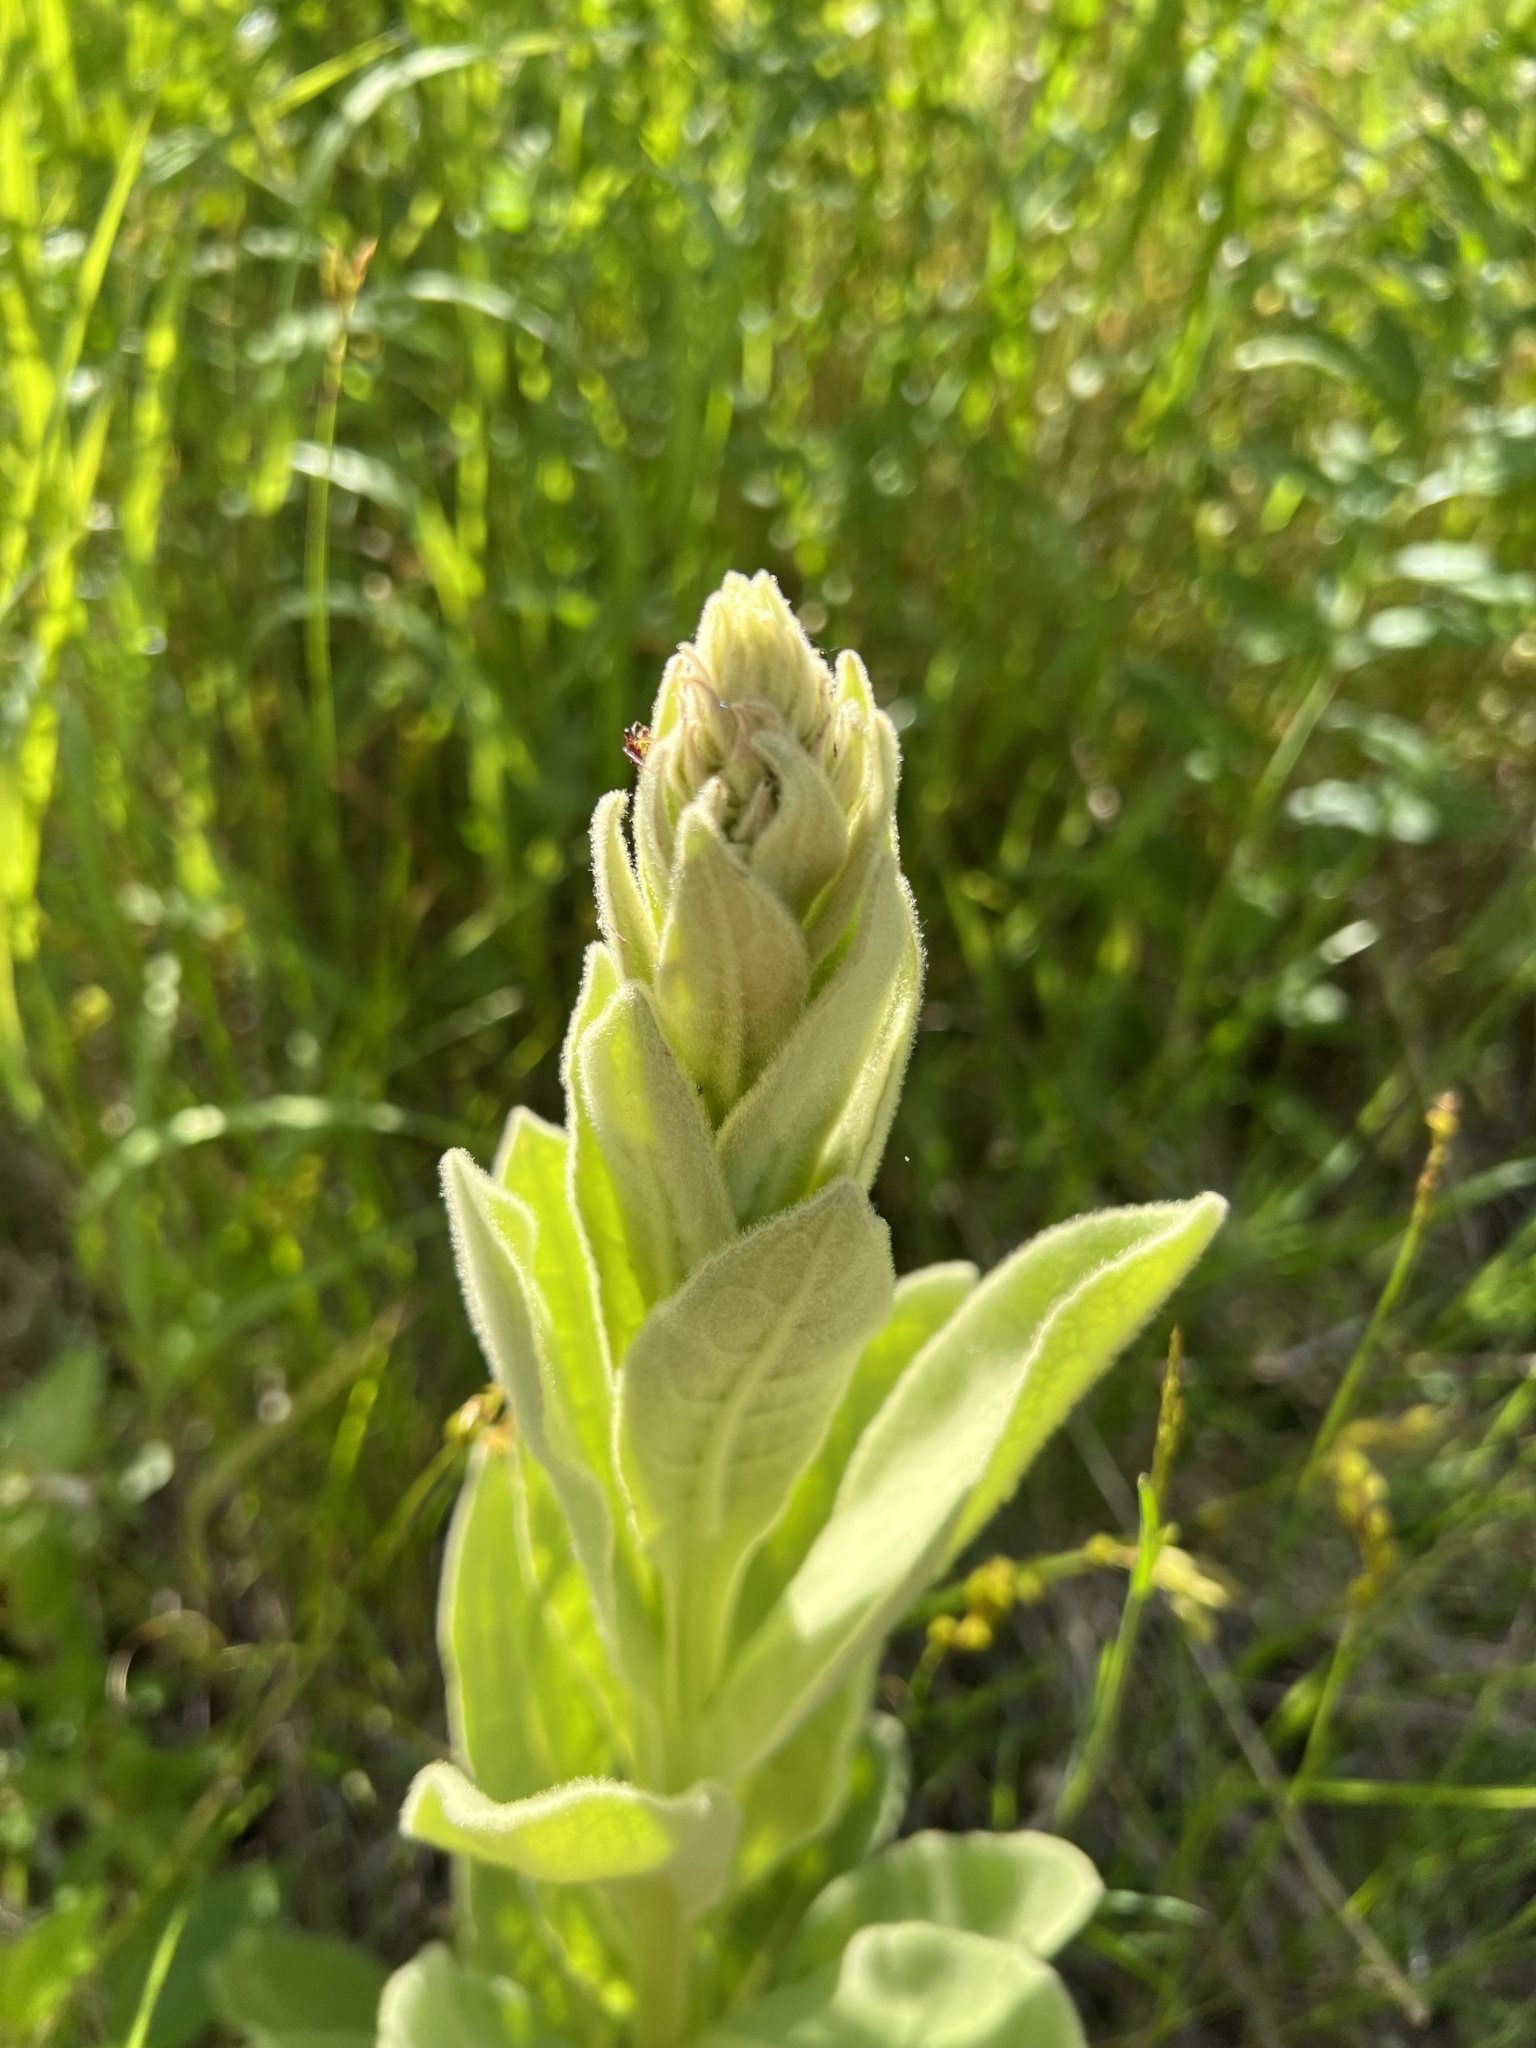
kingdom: Plantae
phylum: Tracheophyta
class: Magnoliopsida
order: Lamiales
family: Scrophulariaceae
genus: Verbascum
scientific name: Verbascum thapsus
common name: Common mullein
